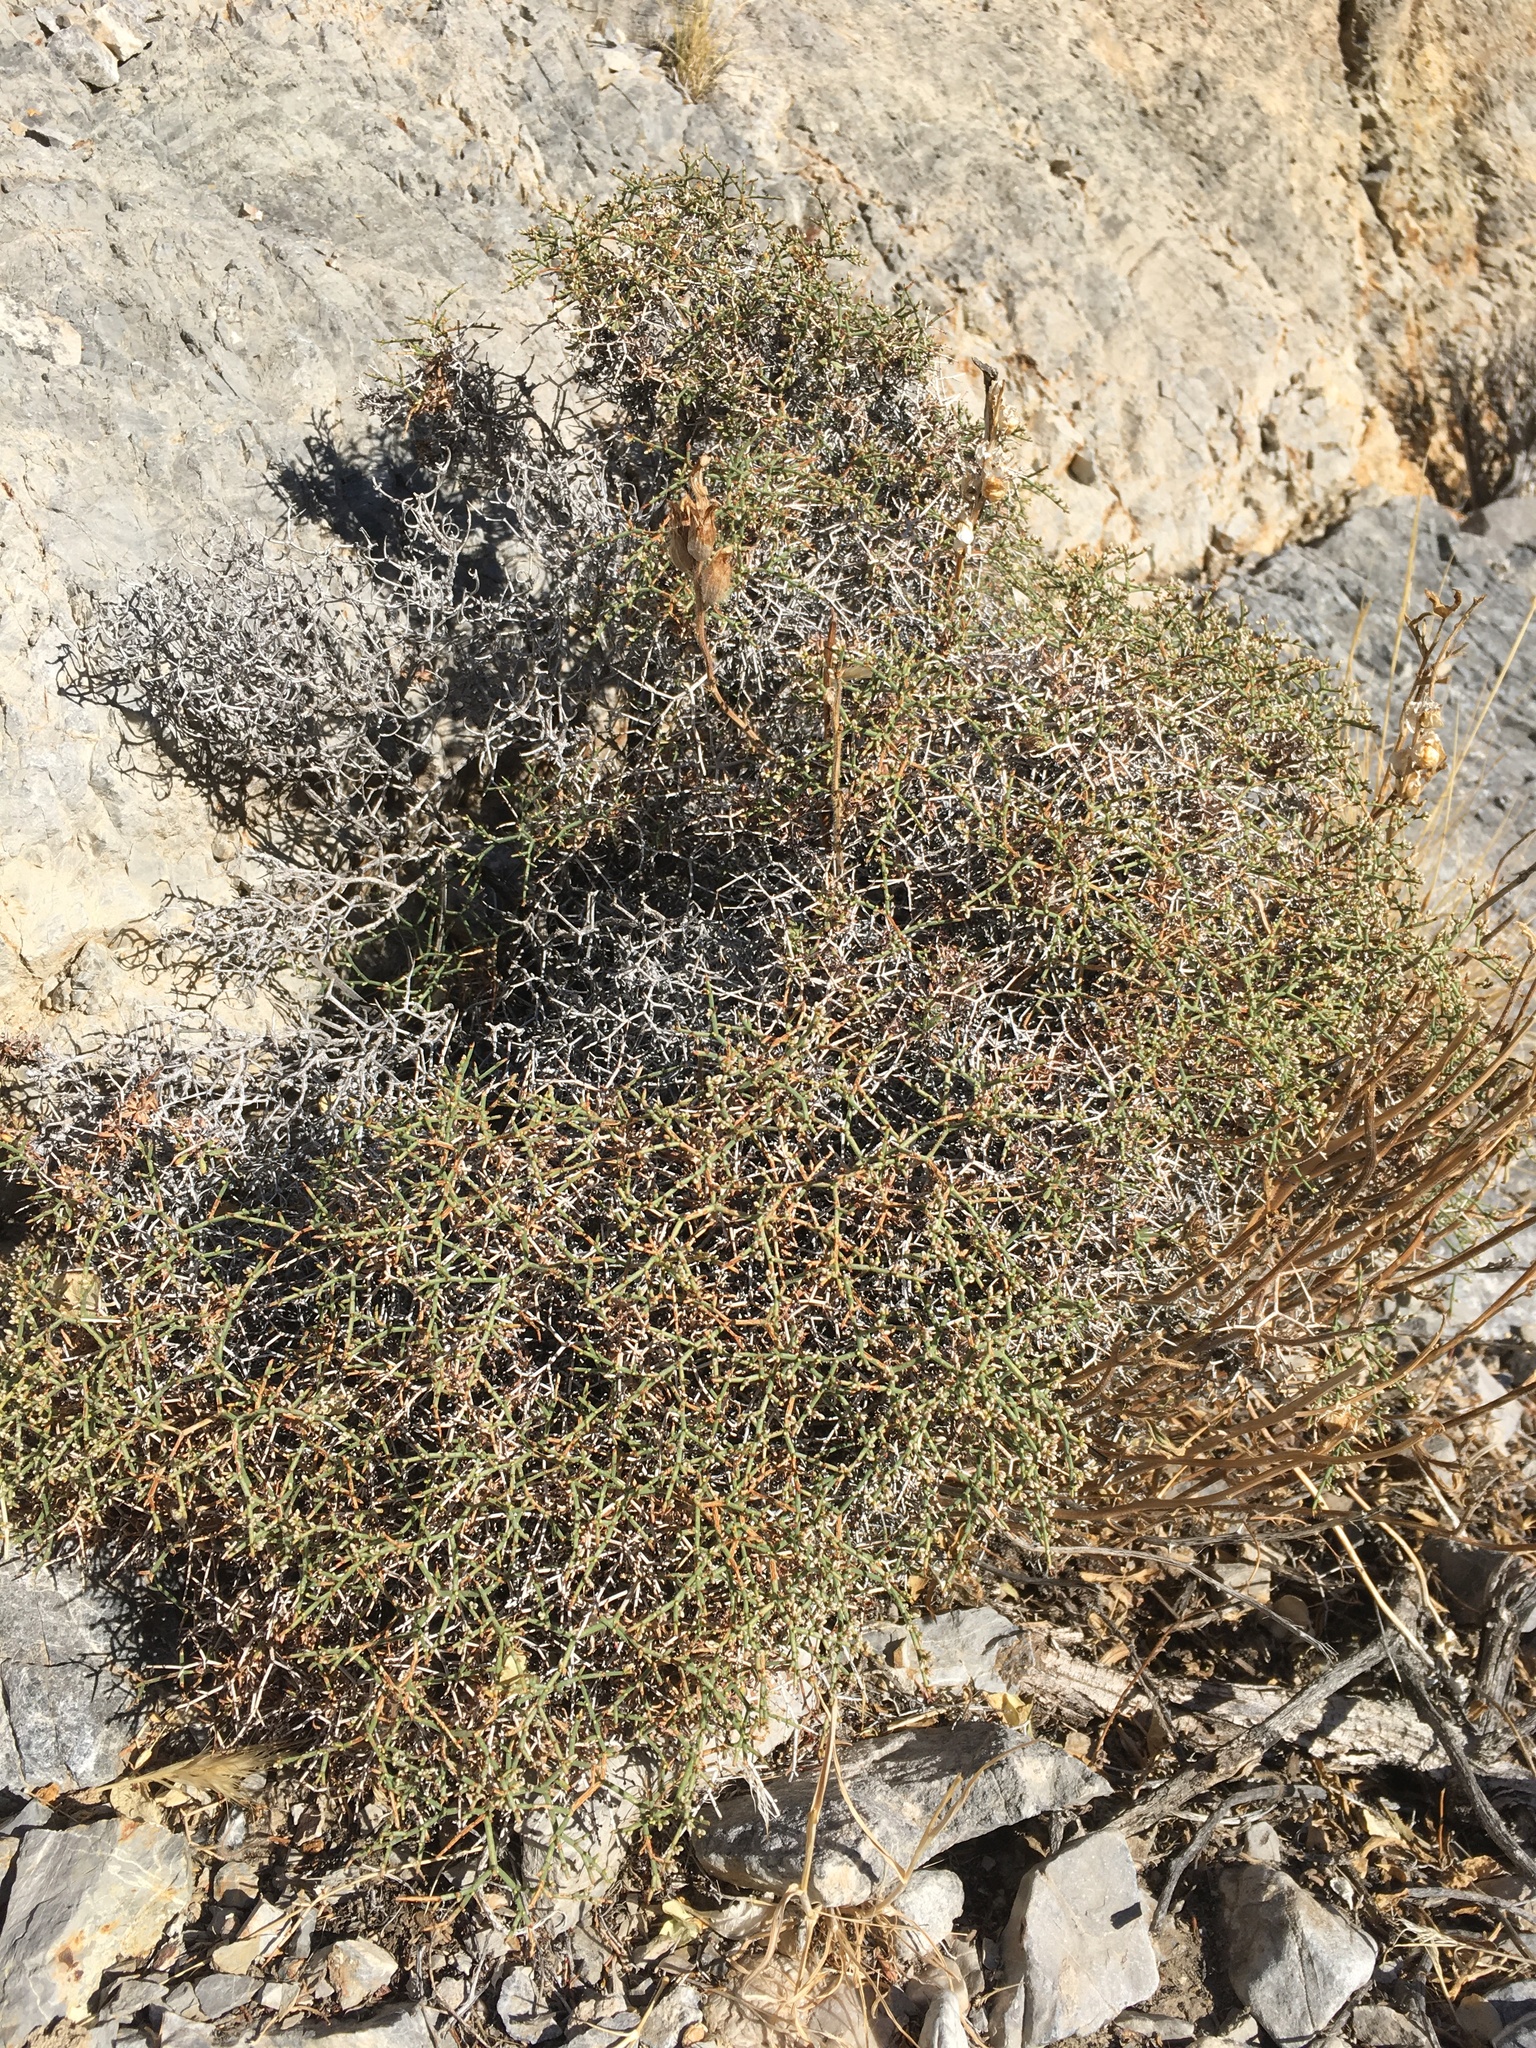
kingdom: Plantae
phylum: Tracheophyta
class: Magnoliopsida
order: Caryophyllales
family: Polygonaceae
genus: Eriogonum
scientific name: Eriogonum heermannii
